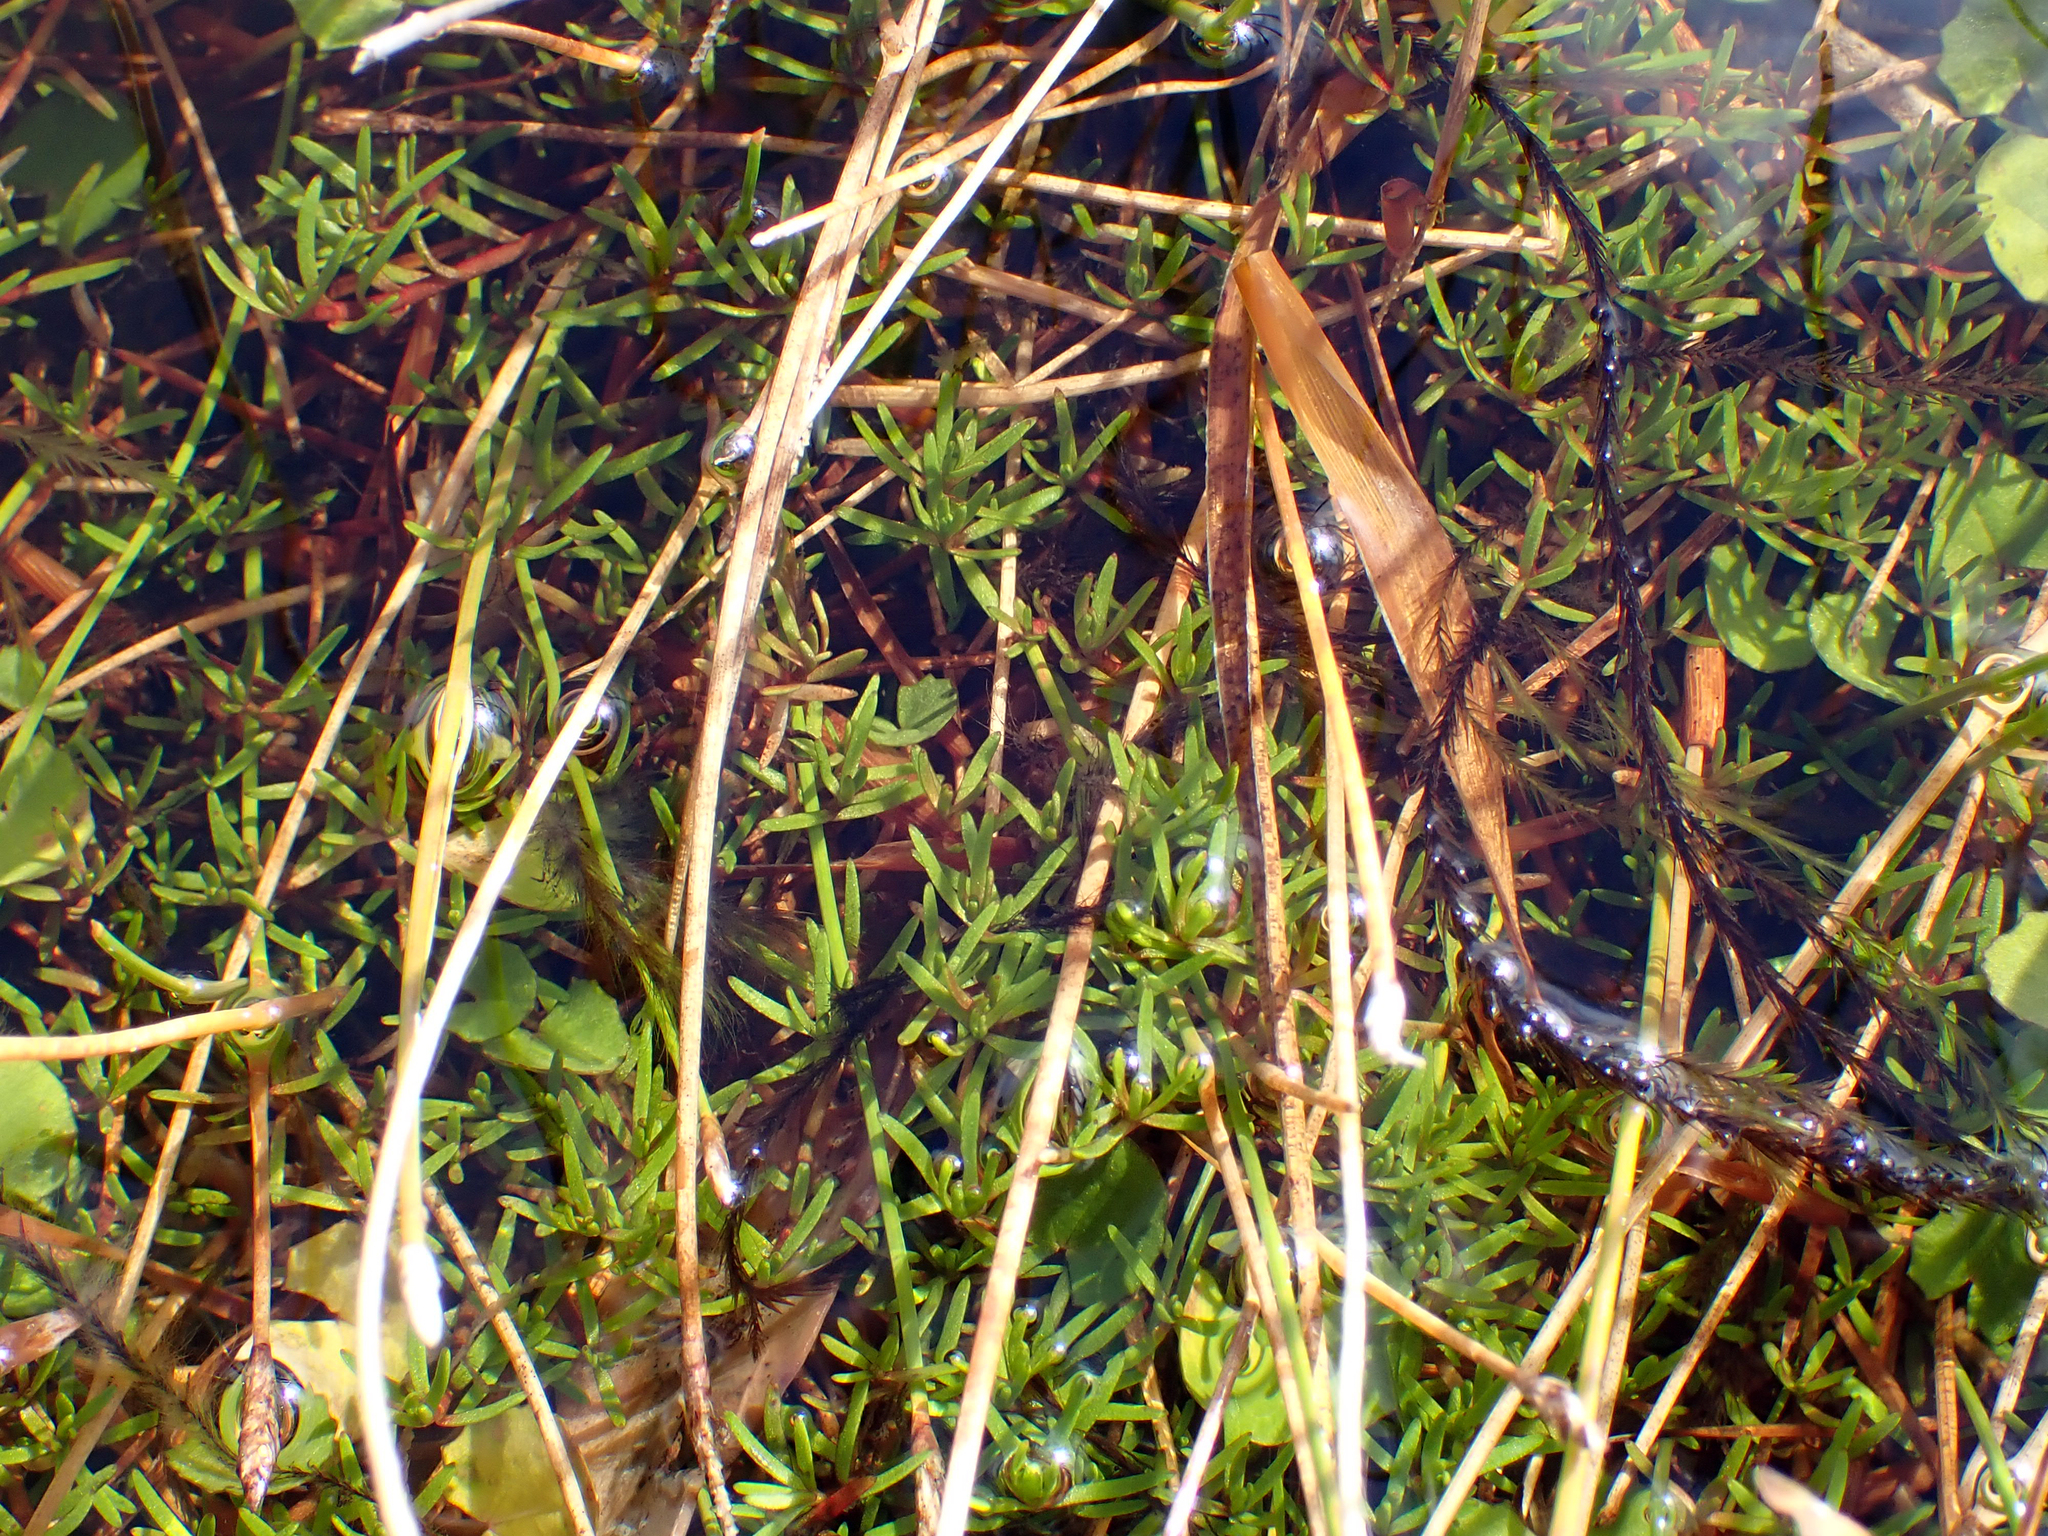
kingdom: Plantae
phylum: Tracheophyta
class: Magnoliopsida
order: Saxifragales
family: Haloragaceae
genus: Myriophyllum
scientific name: Myriophyllum pedunculatum
